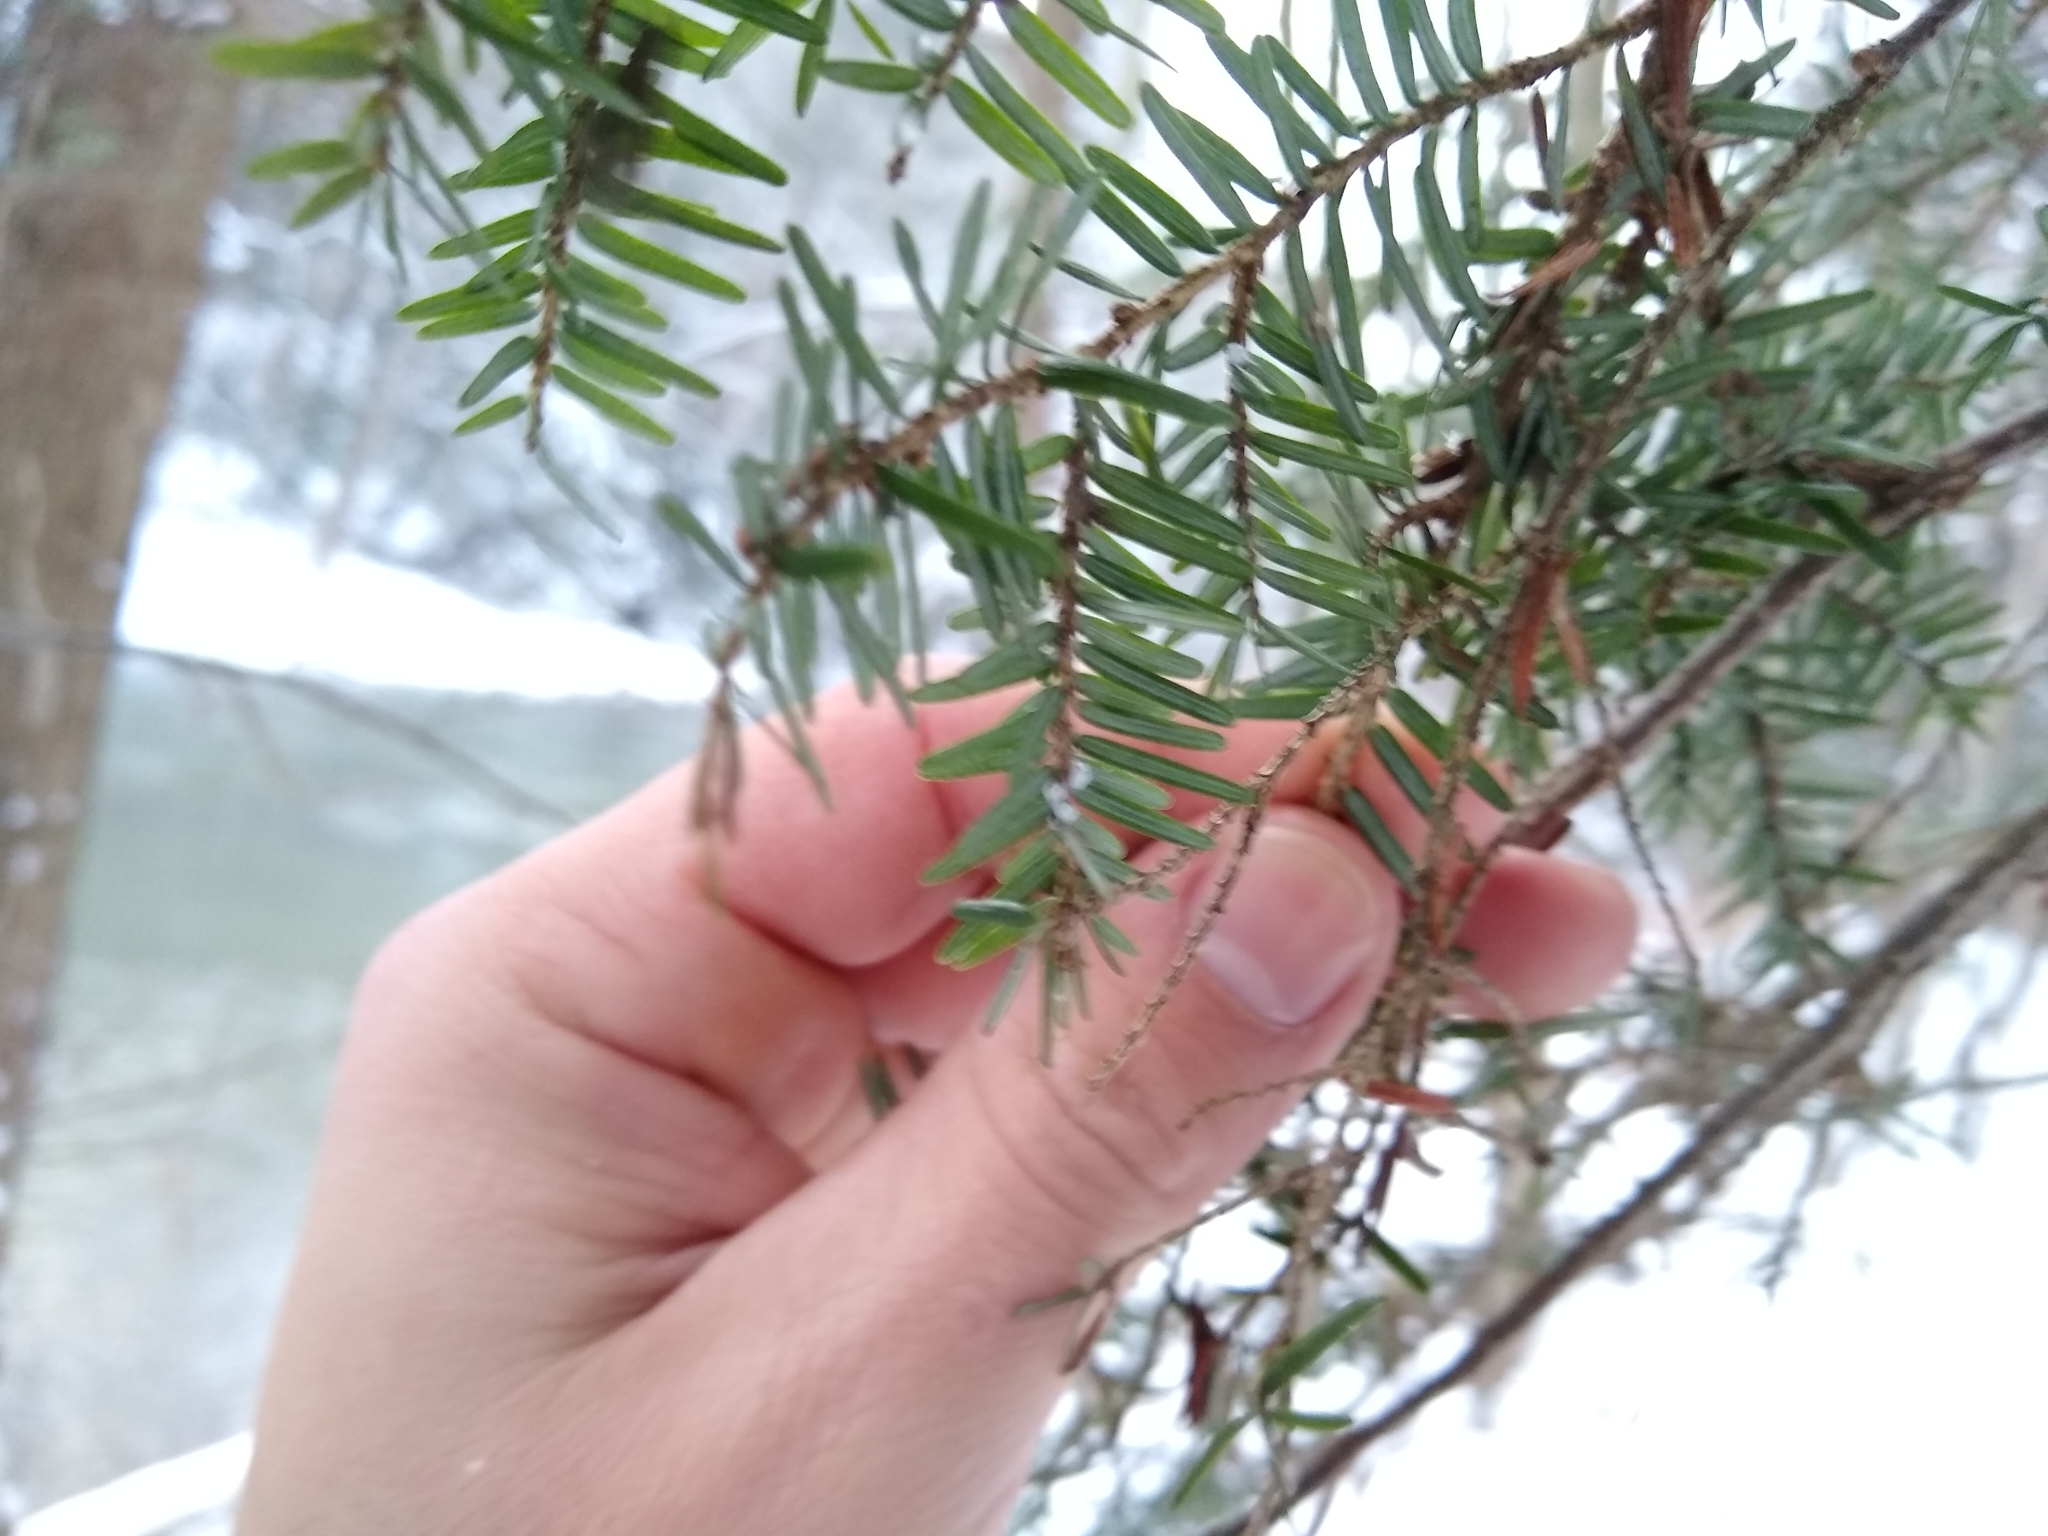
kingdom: Animalia
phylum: Arthropoda
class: Insecta
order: Hemiptera
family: Adelgidae
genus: Adelges
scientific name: Adelges tsugae
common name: Hemlock woolly adelgid
